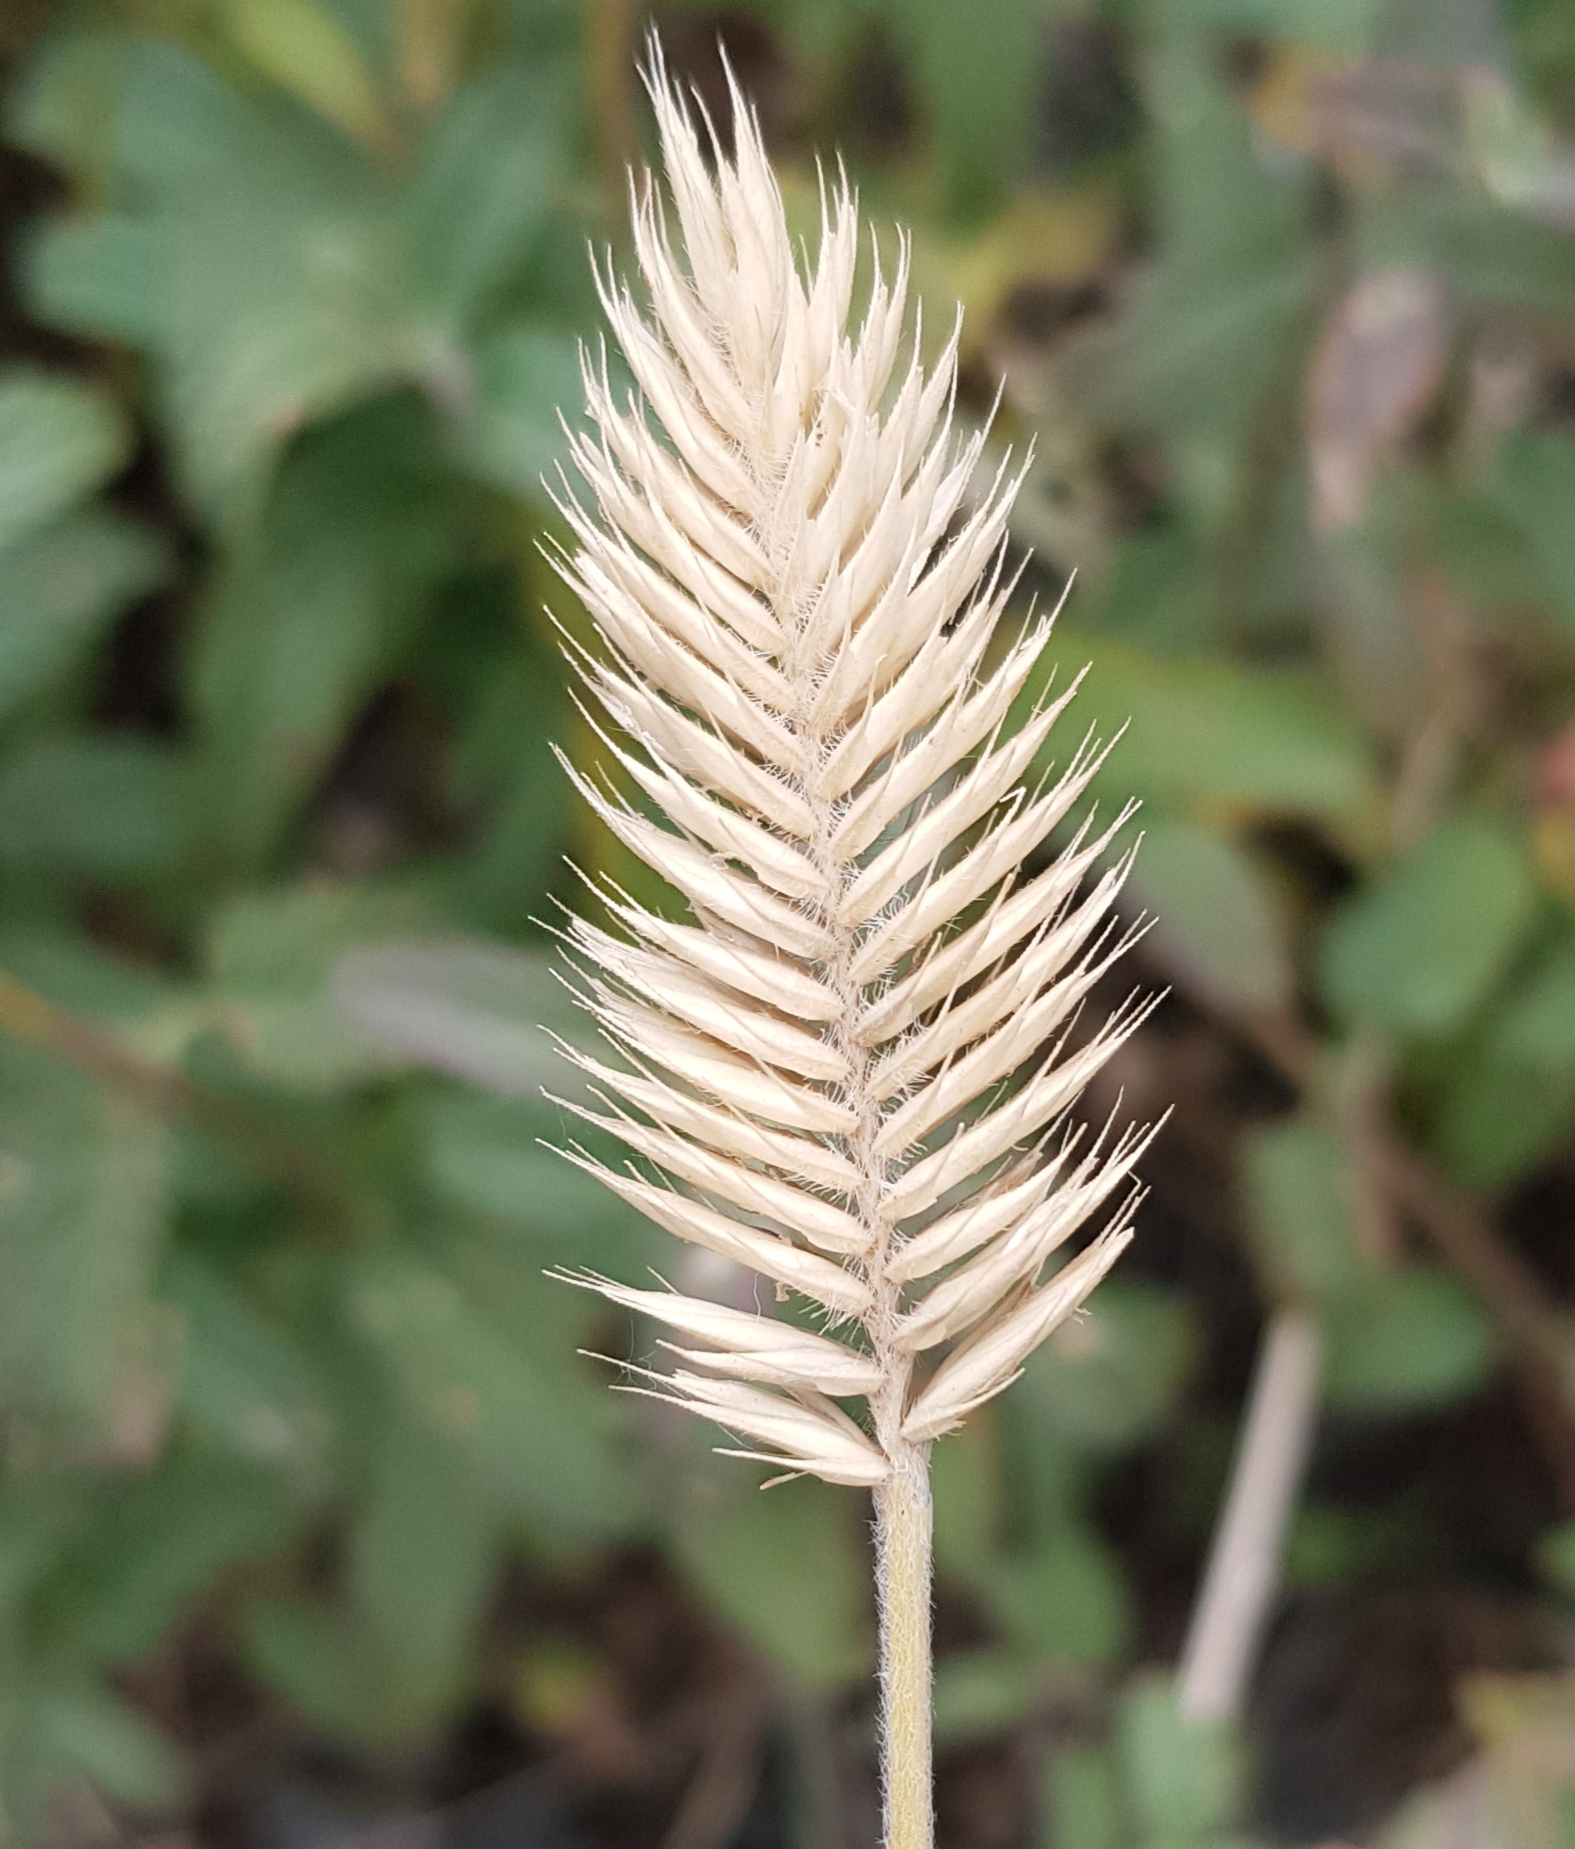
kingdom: Plantae
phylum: Tracheophyta
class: Liliopsida
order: Poales
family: Poaceae
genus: Agropyron
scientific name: Agropyron cristatum
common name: Crested wheatgrass
